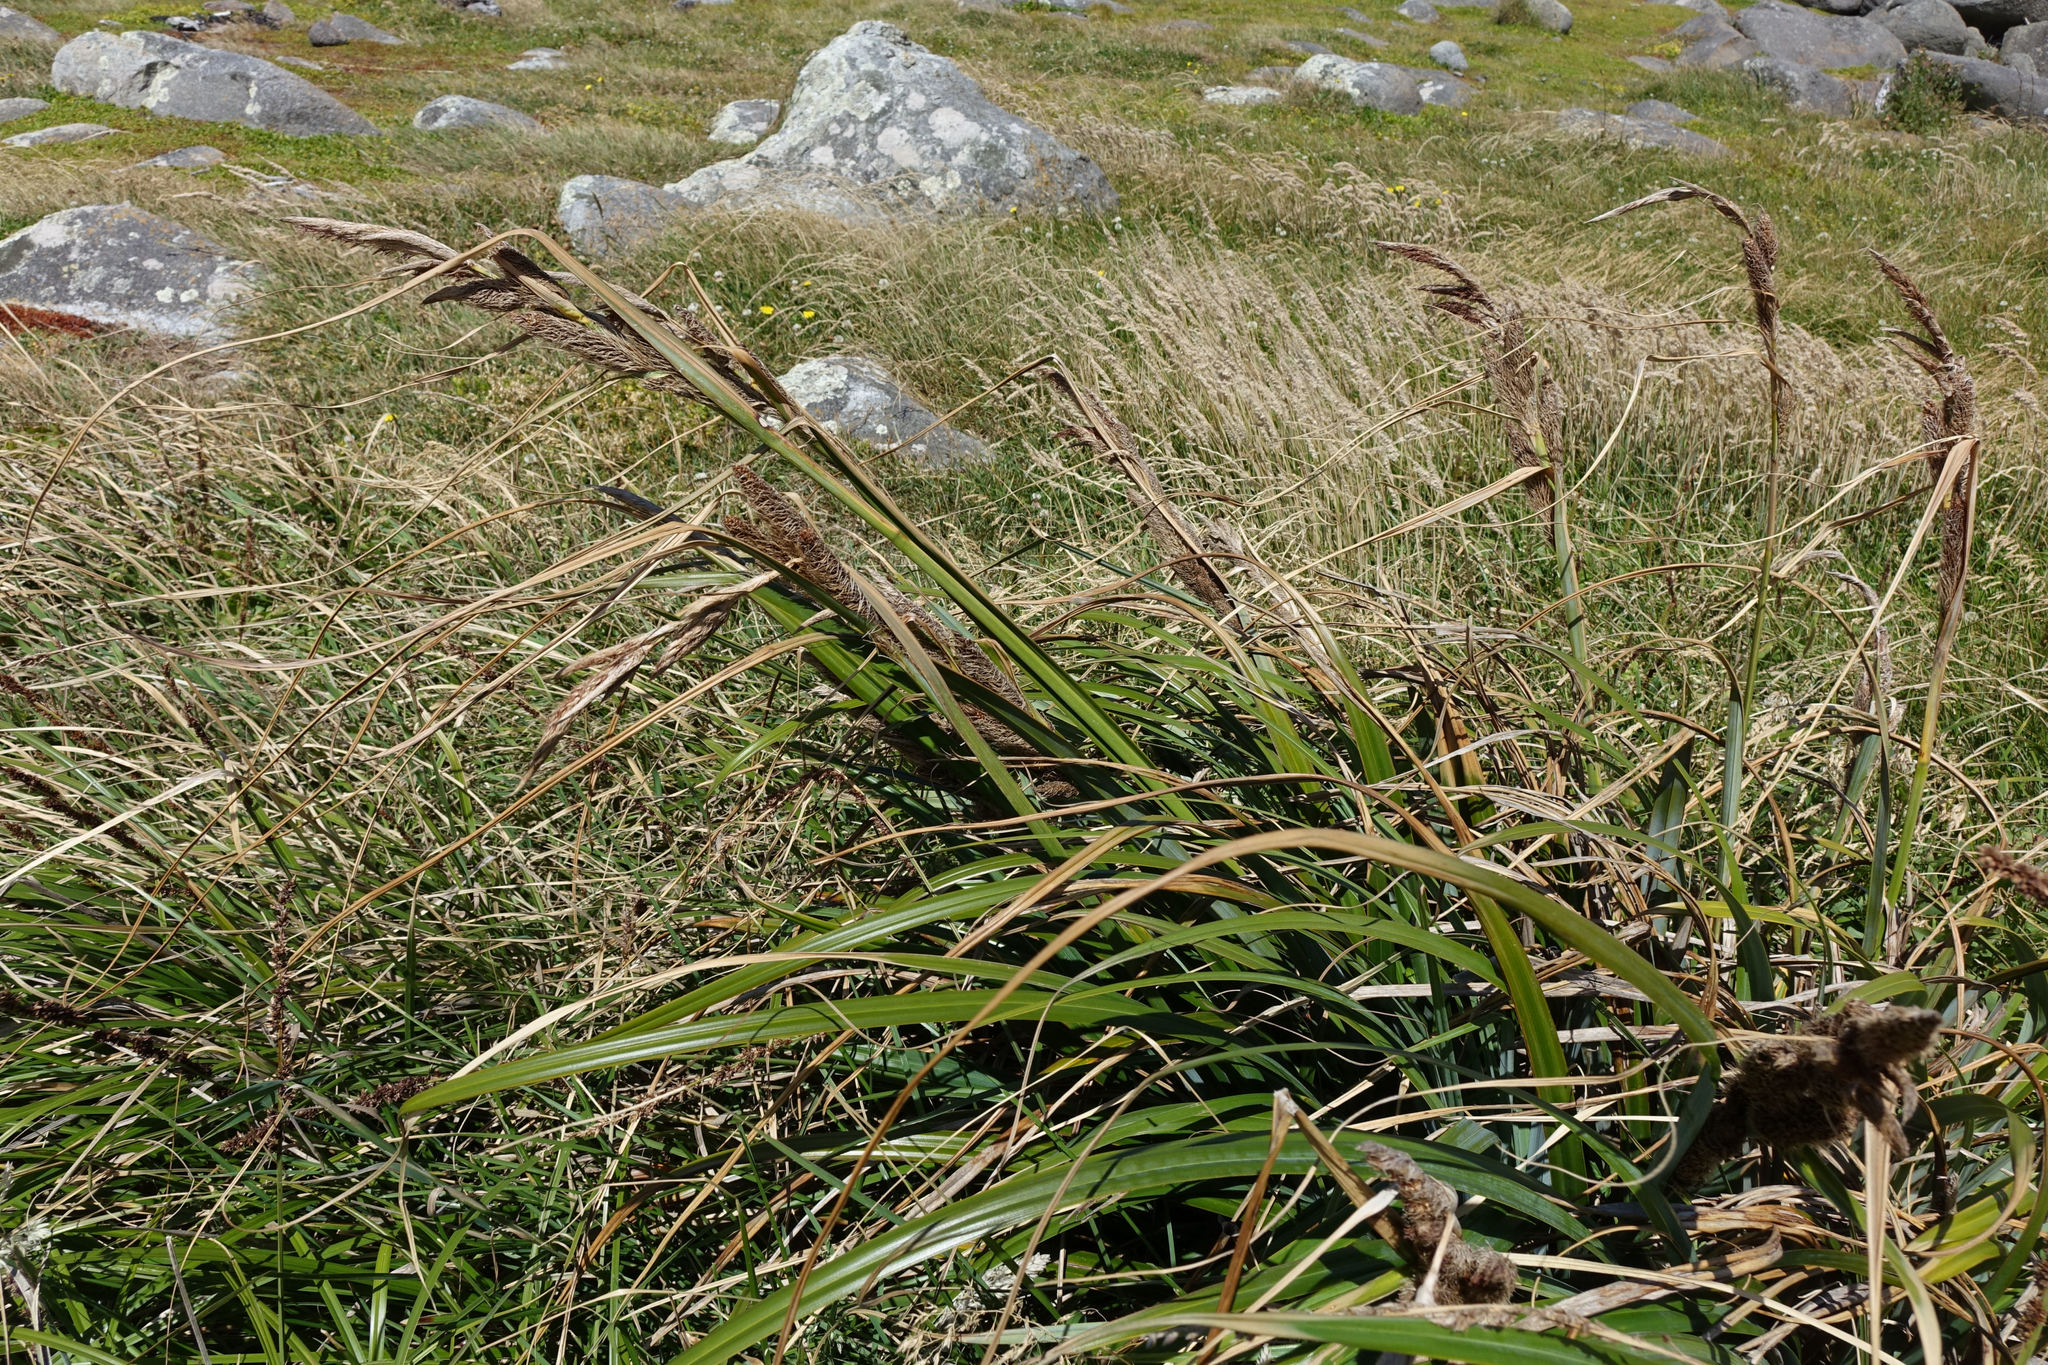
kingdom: Plantae
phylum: Tracheophyta
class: Liliopsida
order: Poales
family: Cyperaceae
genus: Carex
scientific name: Carex trifida
